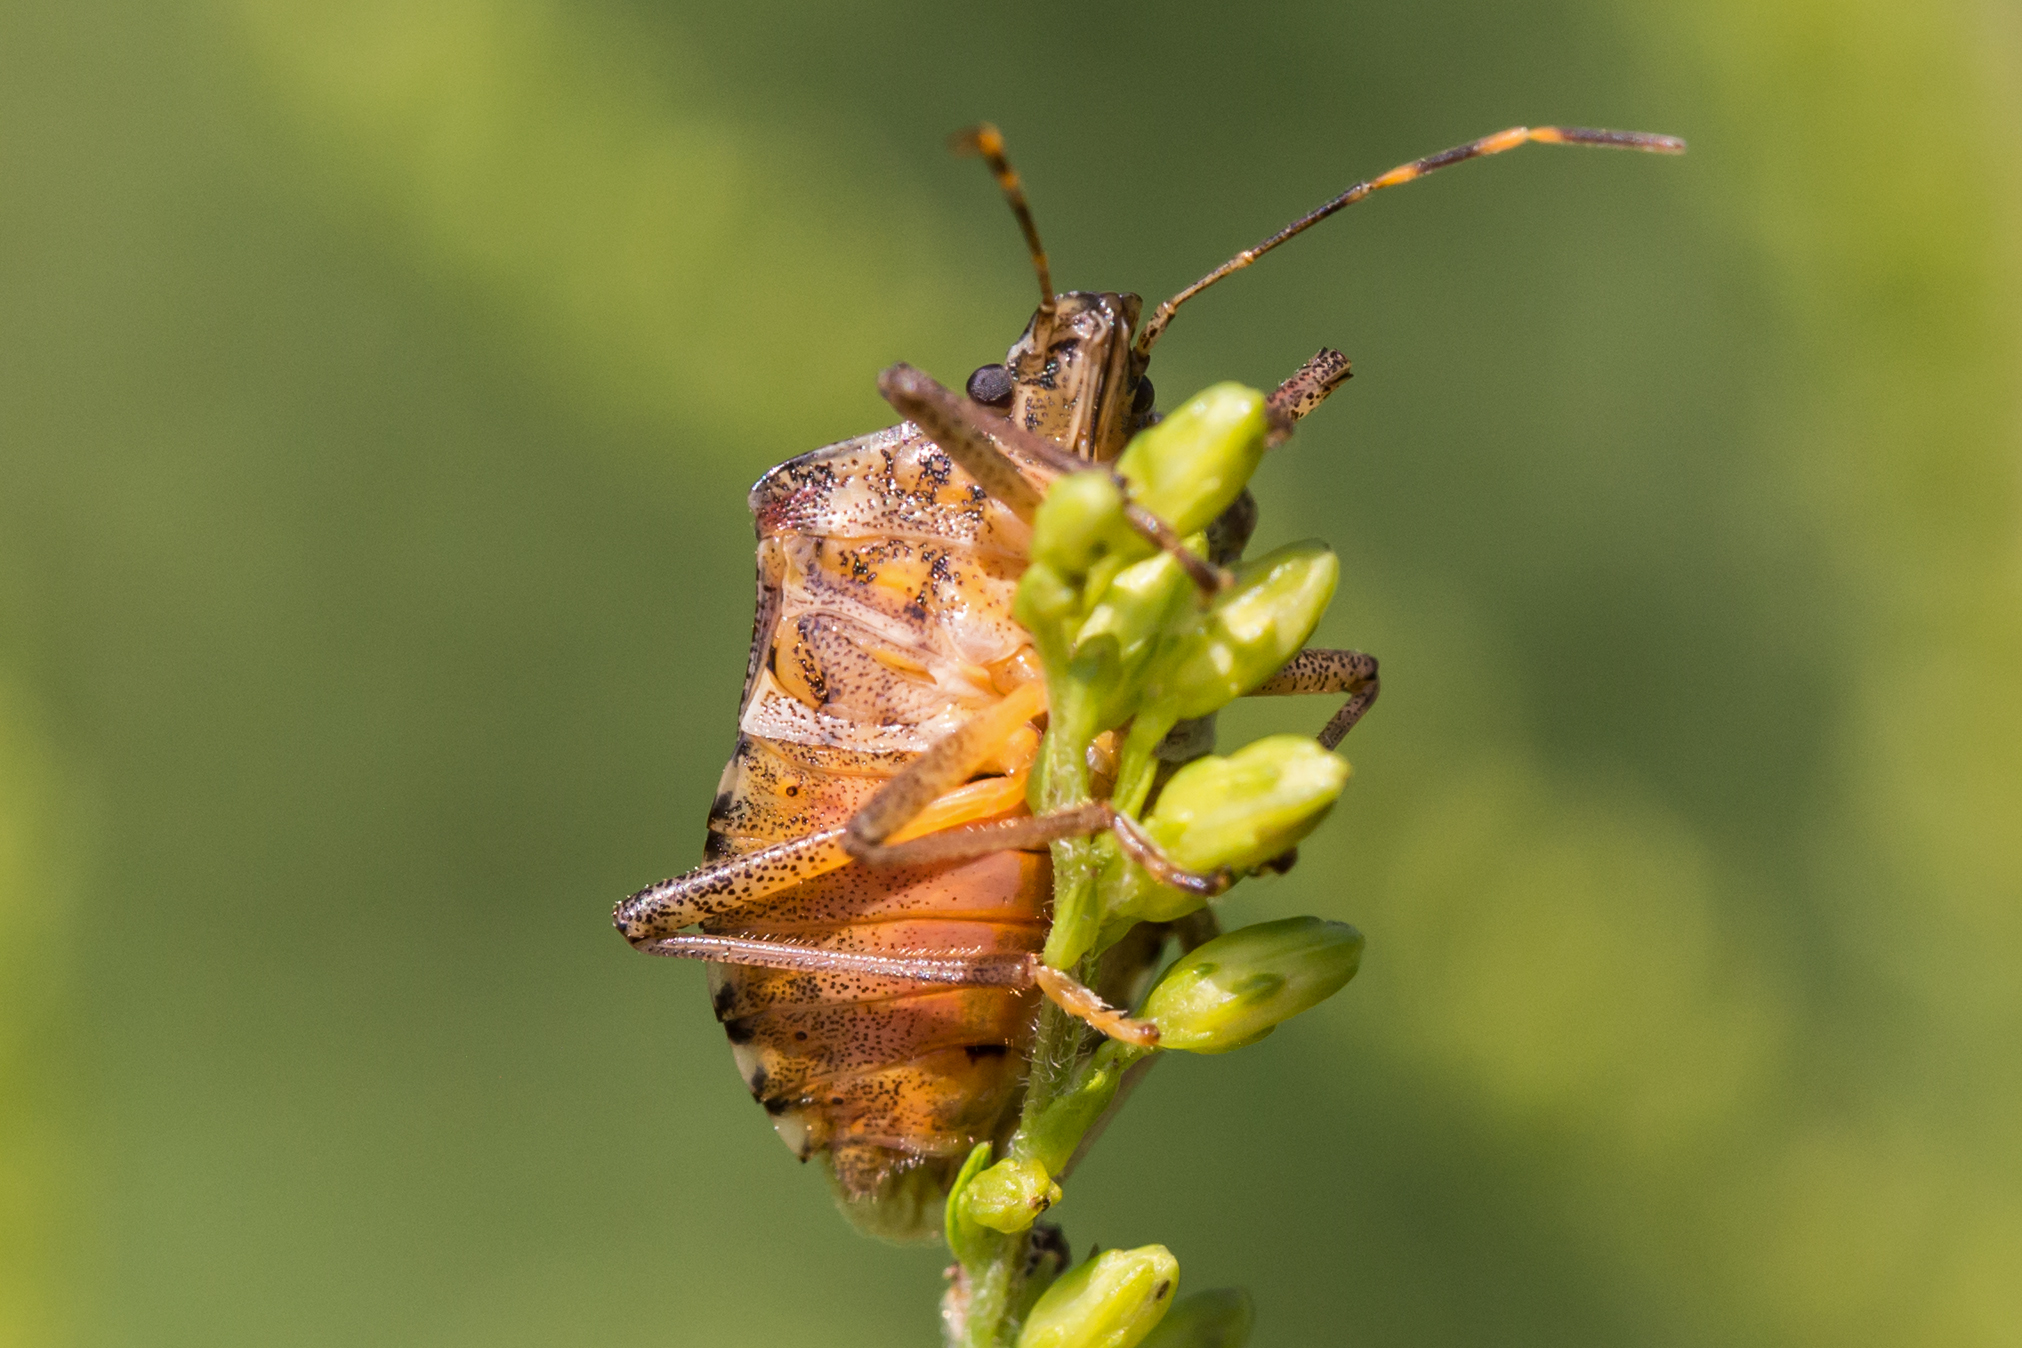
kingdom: Animalia
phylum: Arthropoda
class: Insecta
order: Hemiptera
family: Pentatomidae
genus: Halyomorpha
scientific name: Halyomorpha halys
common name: Brown marmorated stink bug
